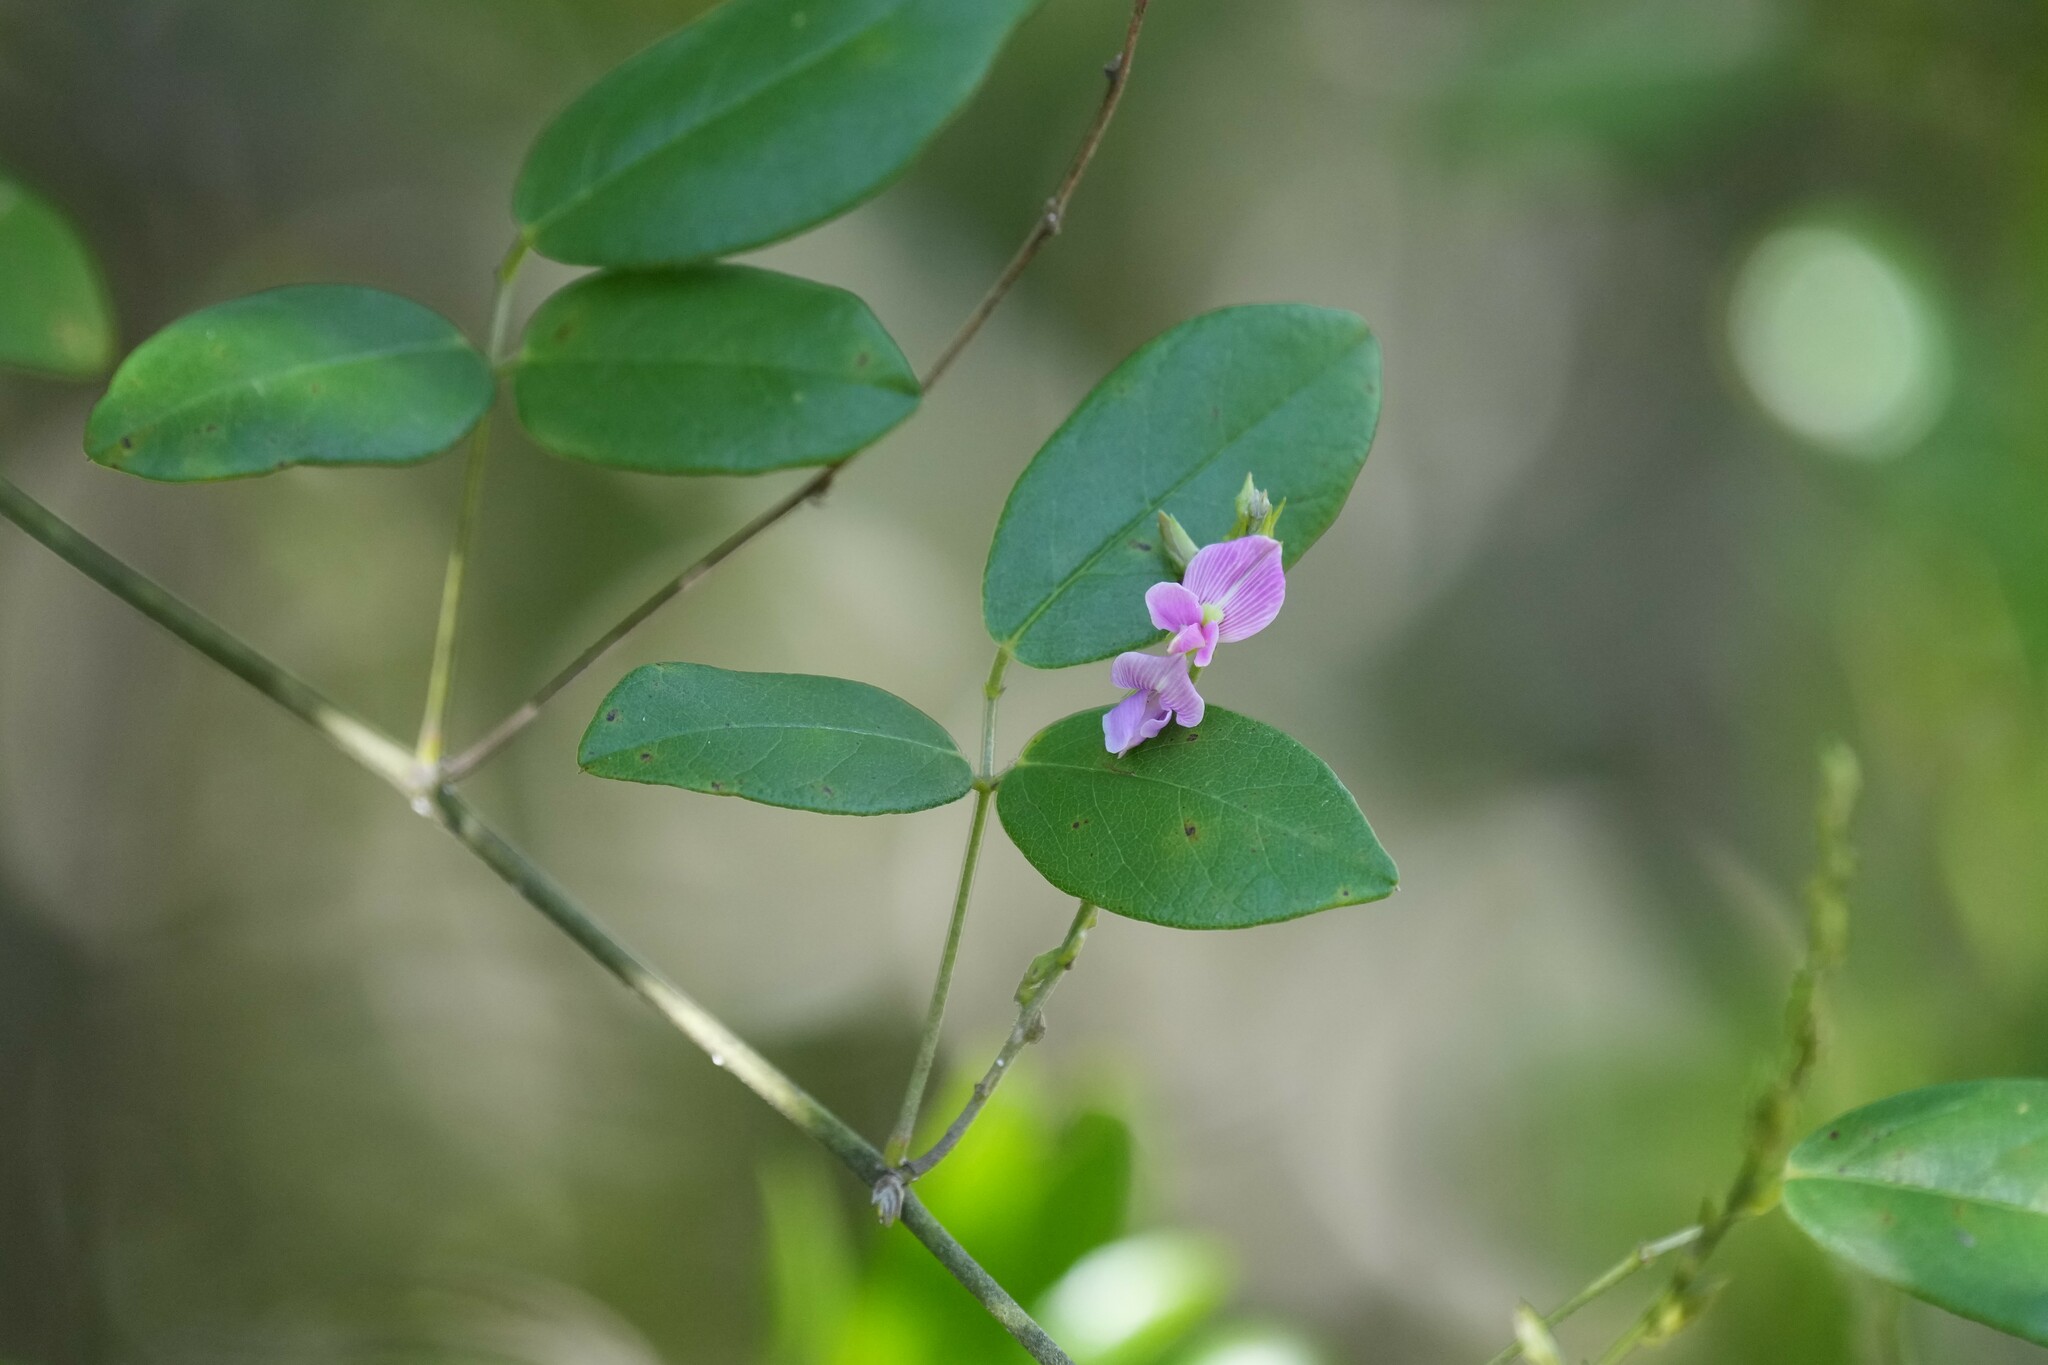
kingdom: Plantae
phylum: Tracheophyta
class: Magnoliopsida
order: Fabales
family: Fabaceae
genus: Galactia
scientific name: Galactia striata
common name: Florida hammock milkpea
